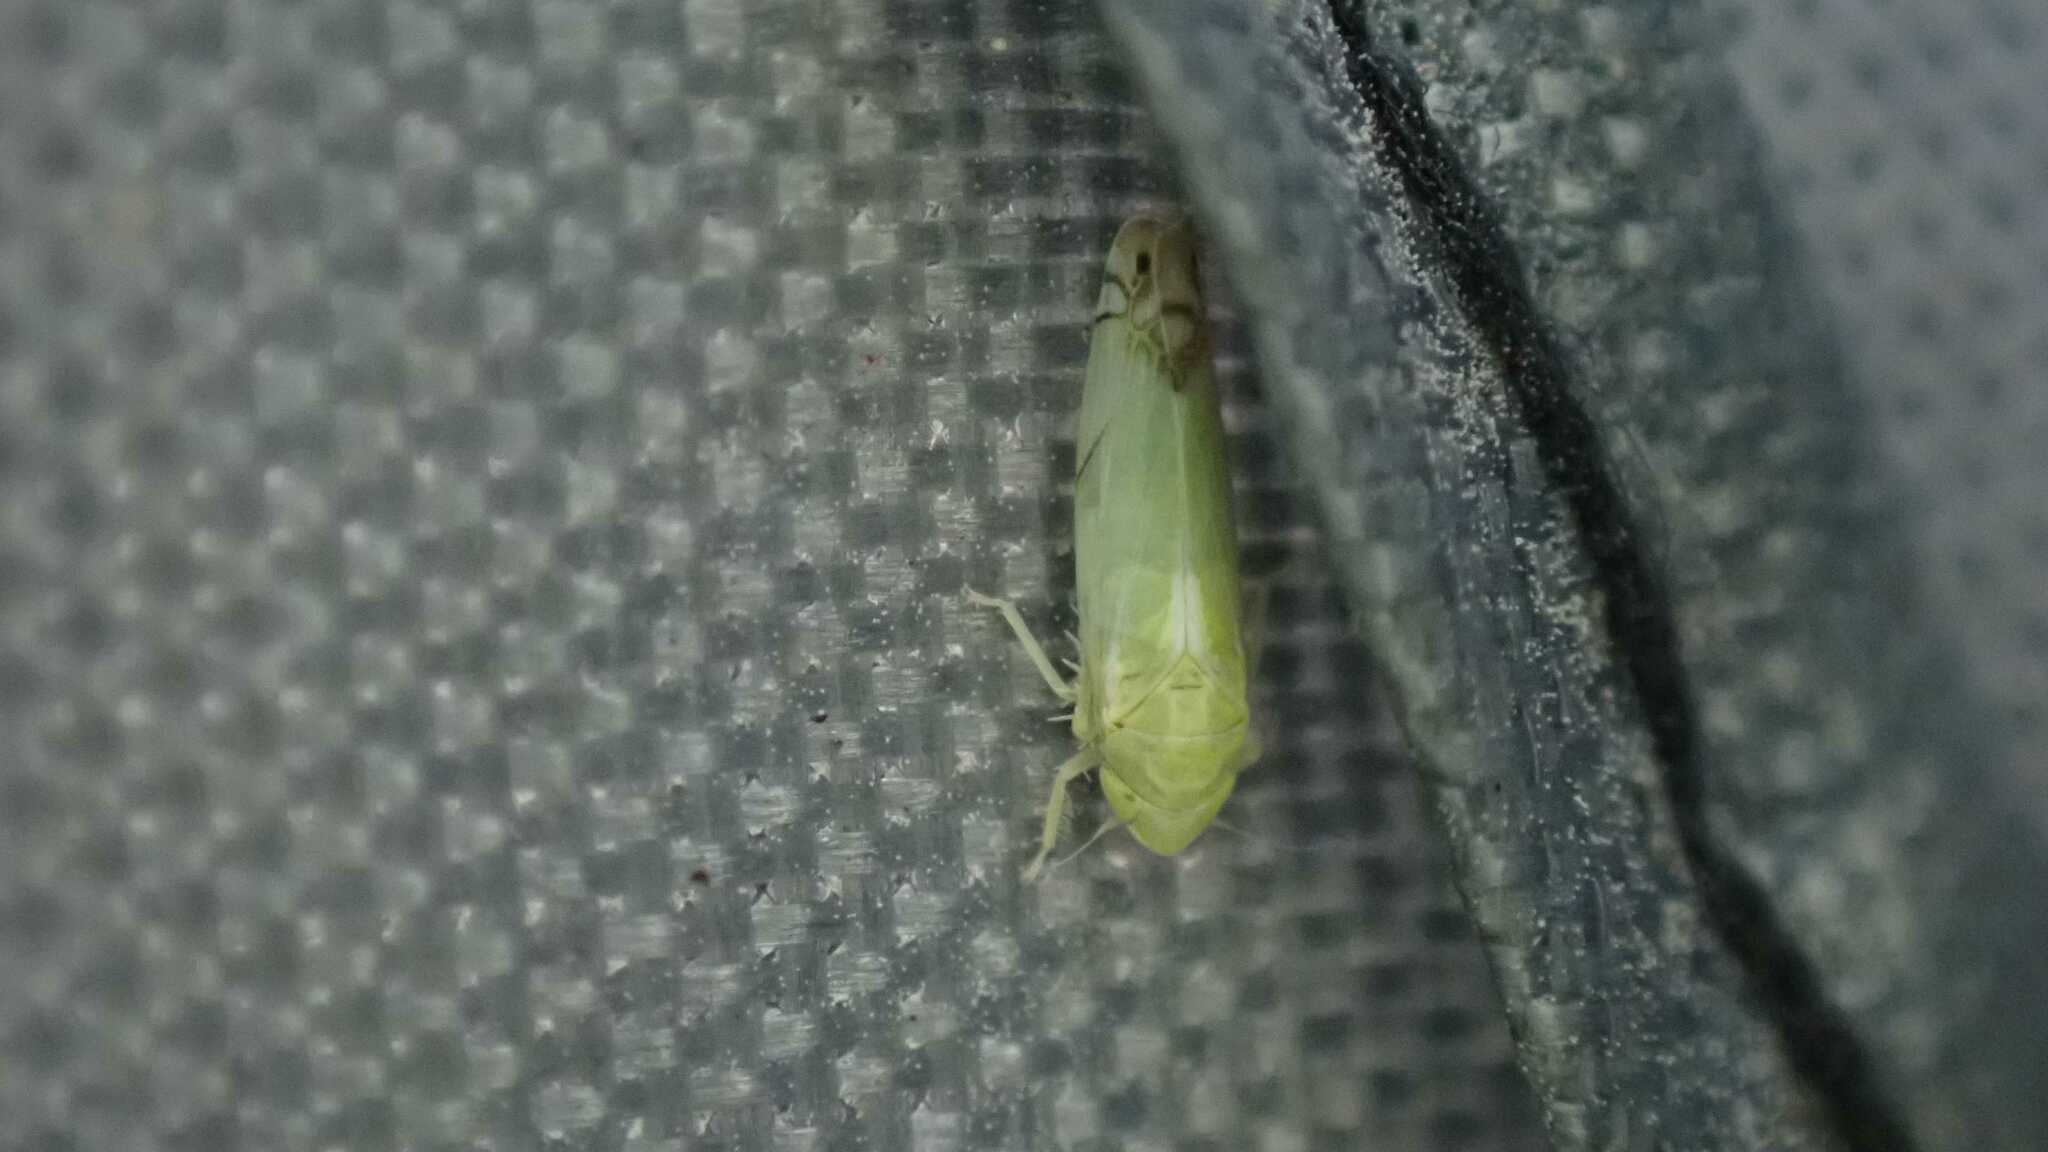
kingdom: Animalia
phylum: Arthropoda
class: Insecta
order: Hemiptera
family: Cicadellidae
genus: Zyginella
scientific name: Zyginella pulchra
